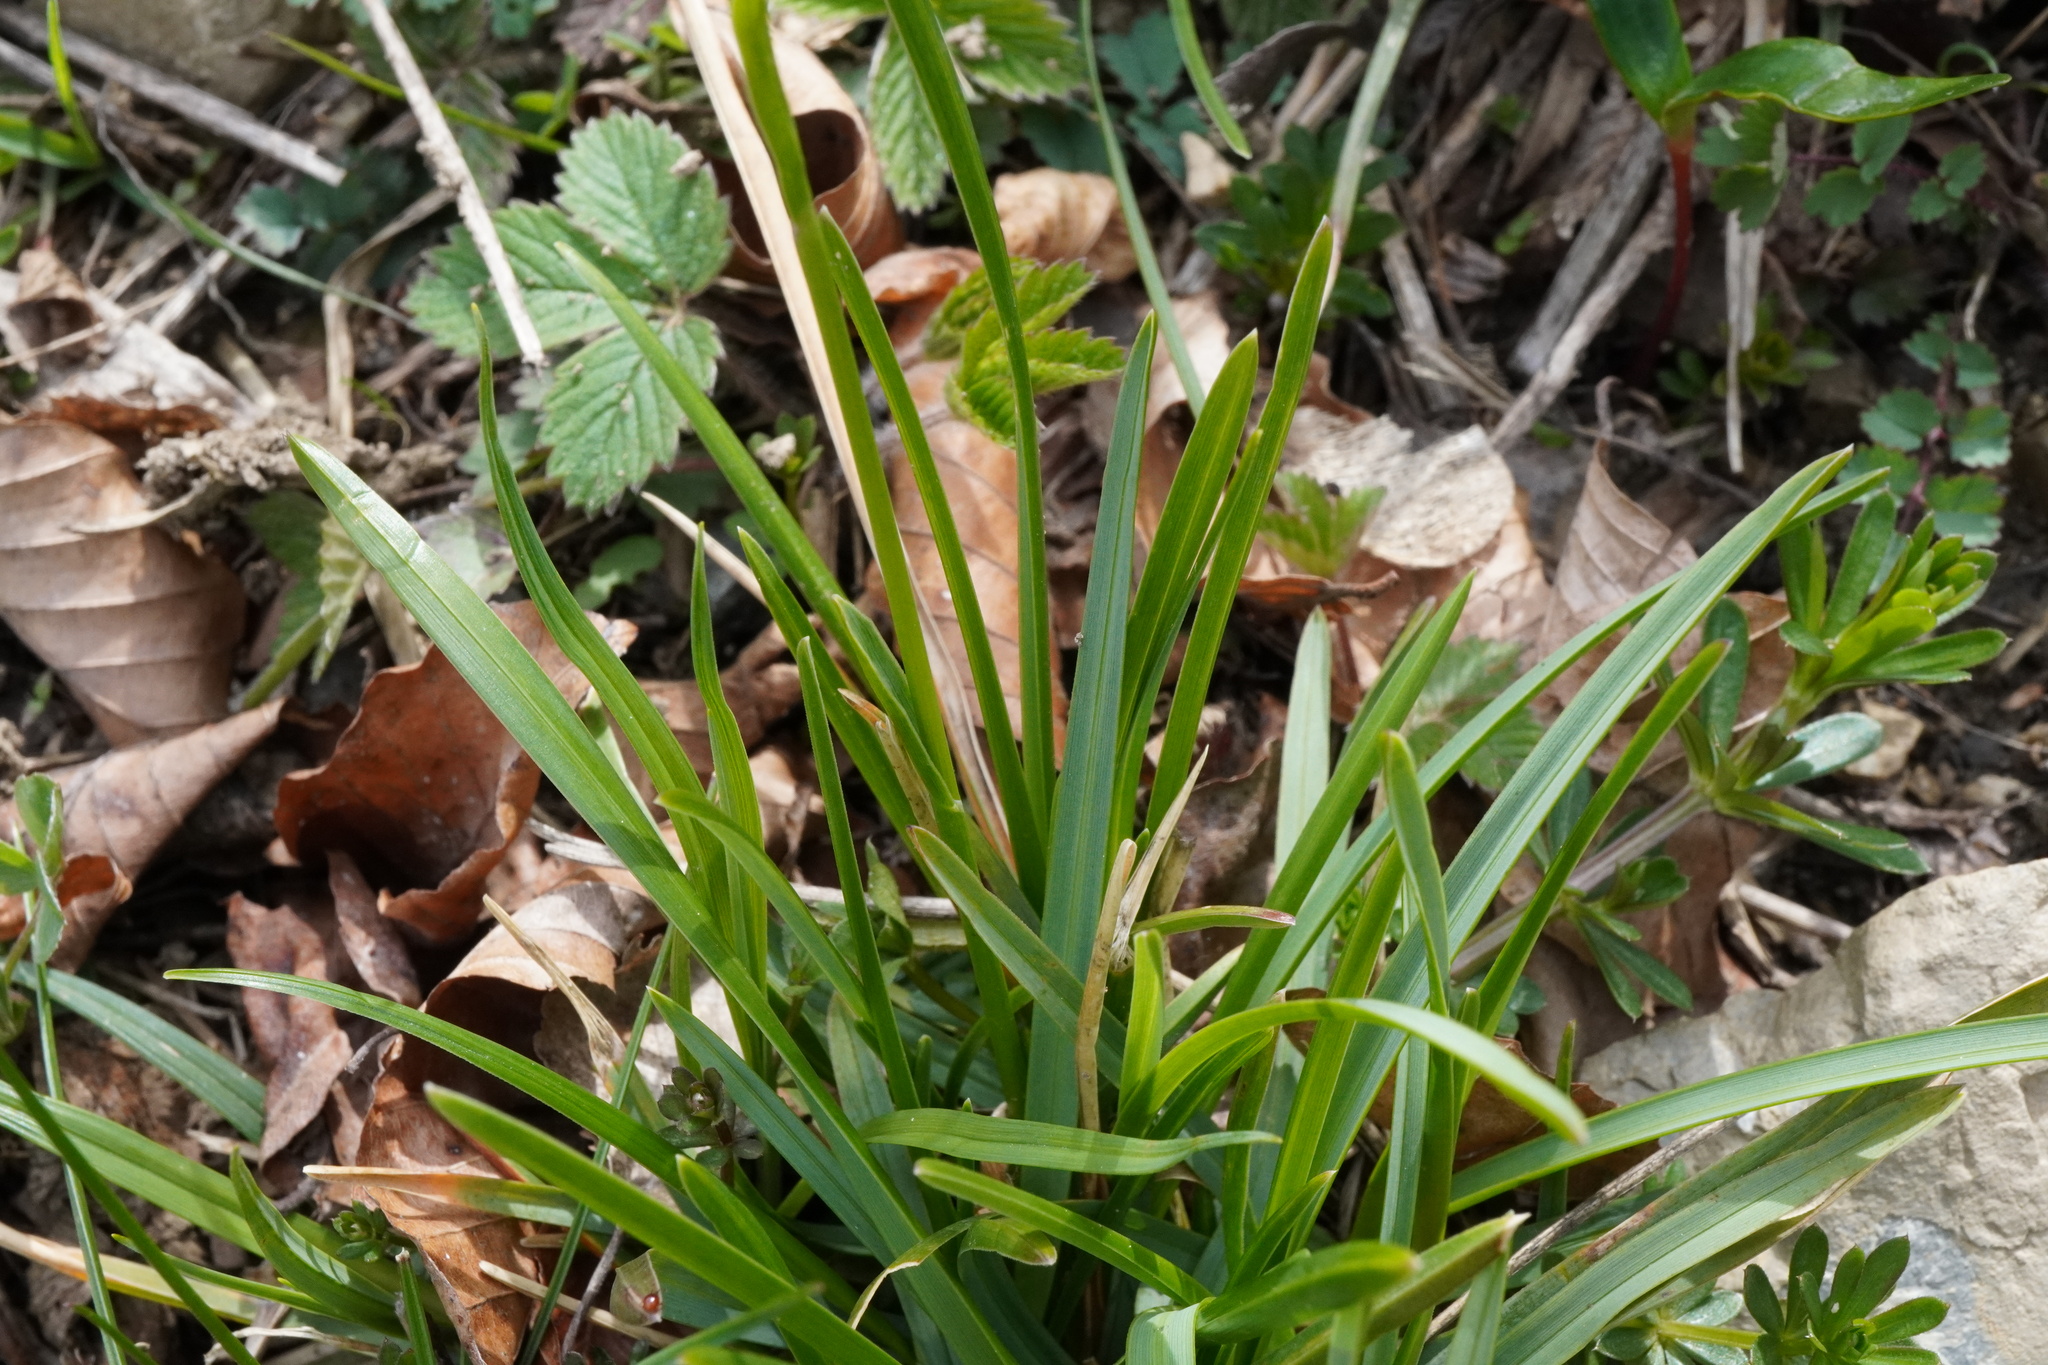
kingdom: Plantae
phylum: Tracheophyta
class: Liliopsida
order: Poales
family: Poaceae
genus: Sesleria
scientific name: Sesleria caerulea
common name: Blue moor-grass
